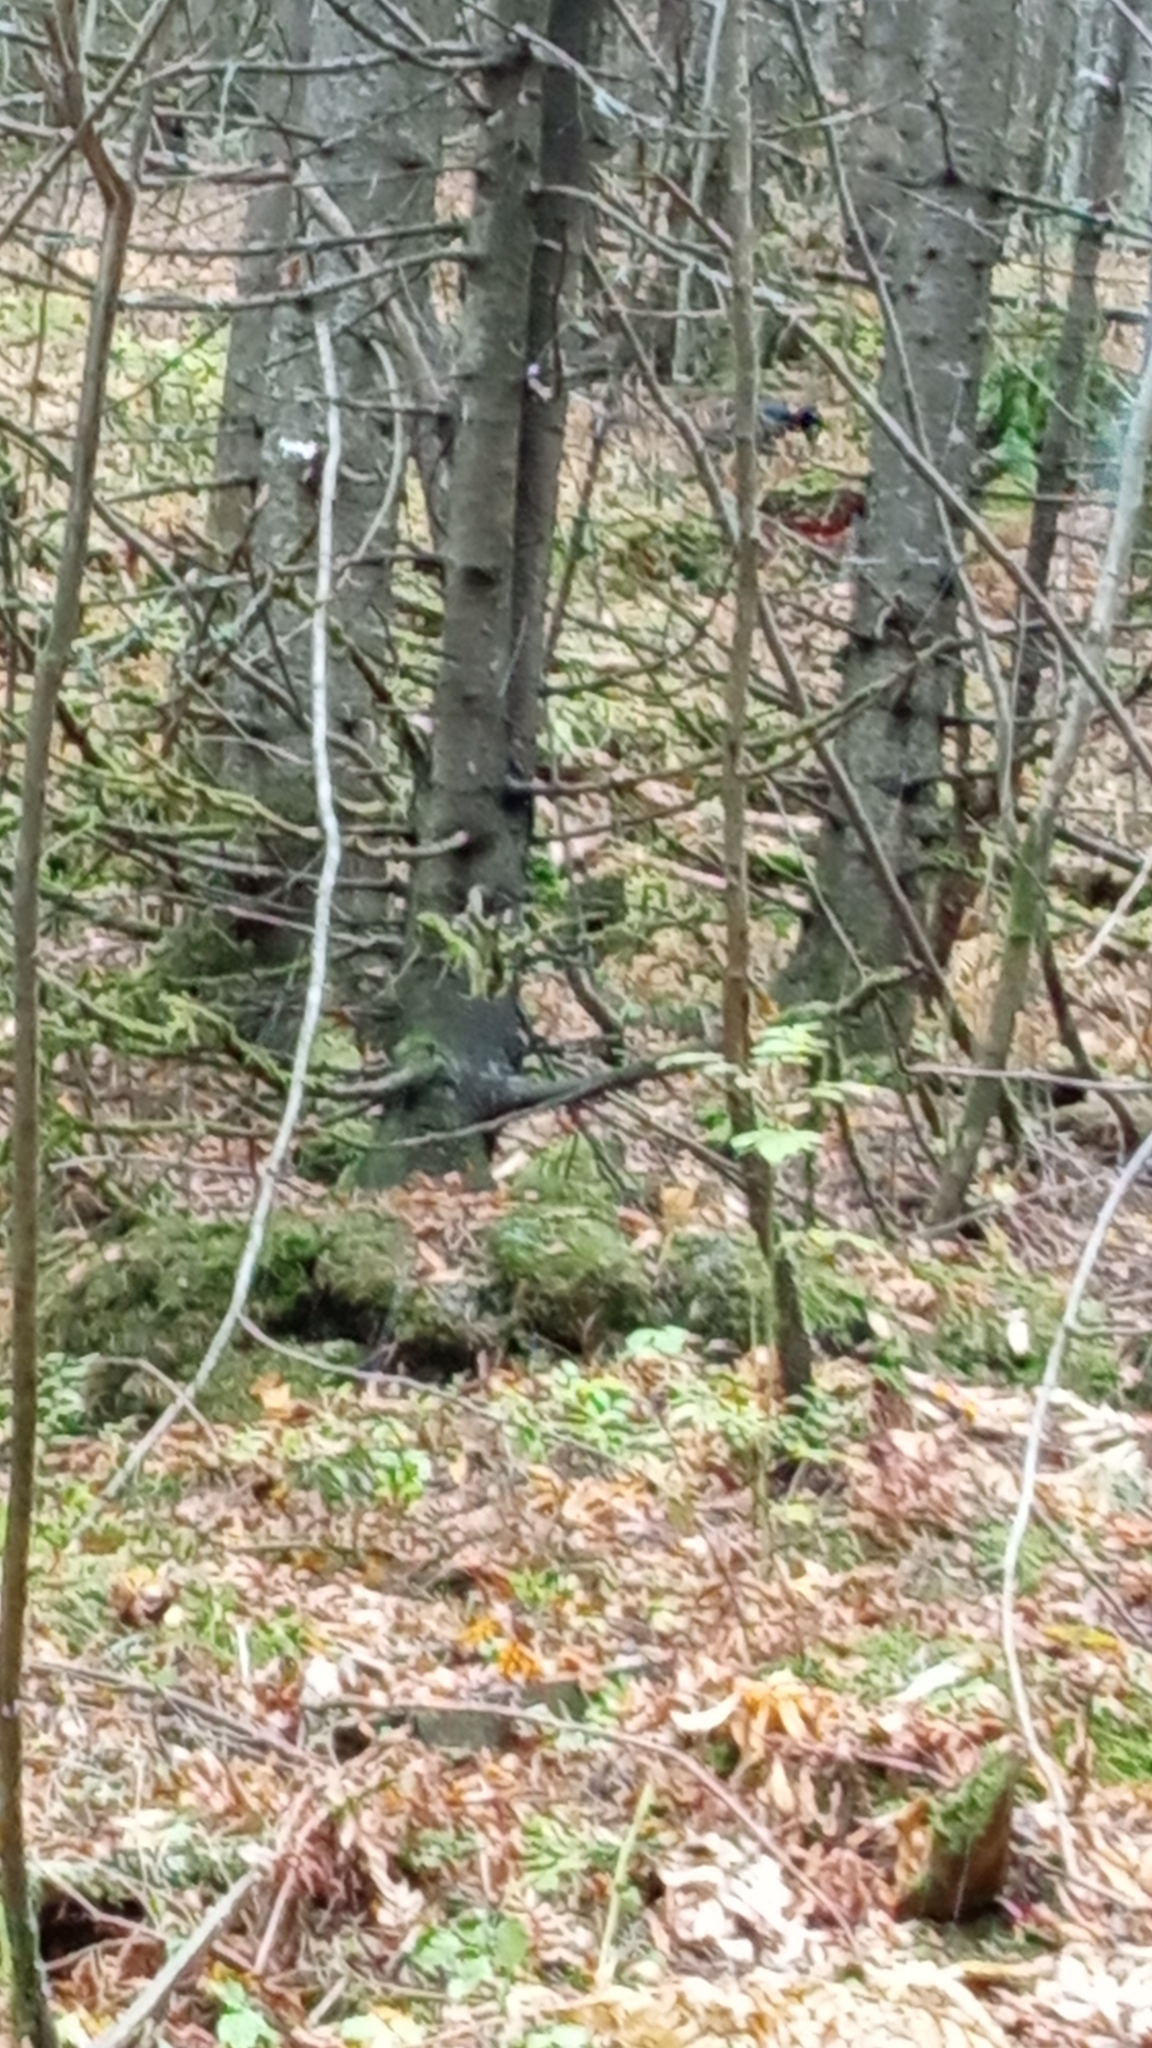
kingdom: Animalia
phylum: Chordata
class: Aves
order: Piciformes
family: Picidae
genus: Dryocopus
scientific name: Dryocopus martius
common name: Black woodpecker
